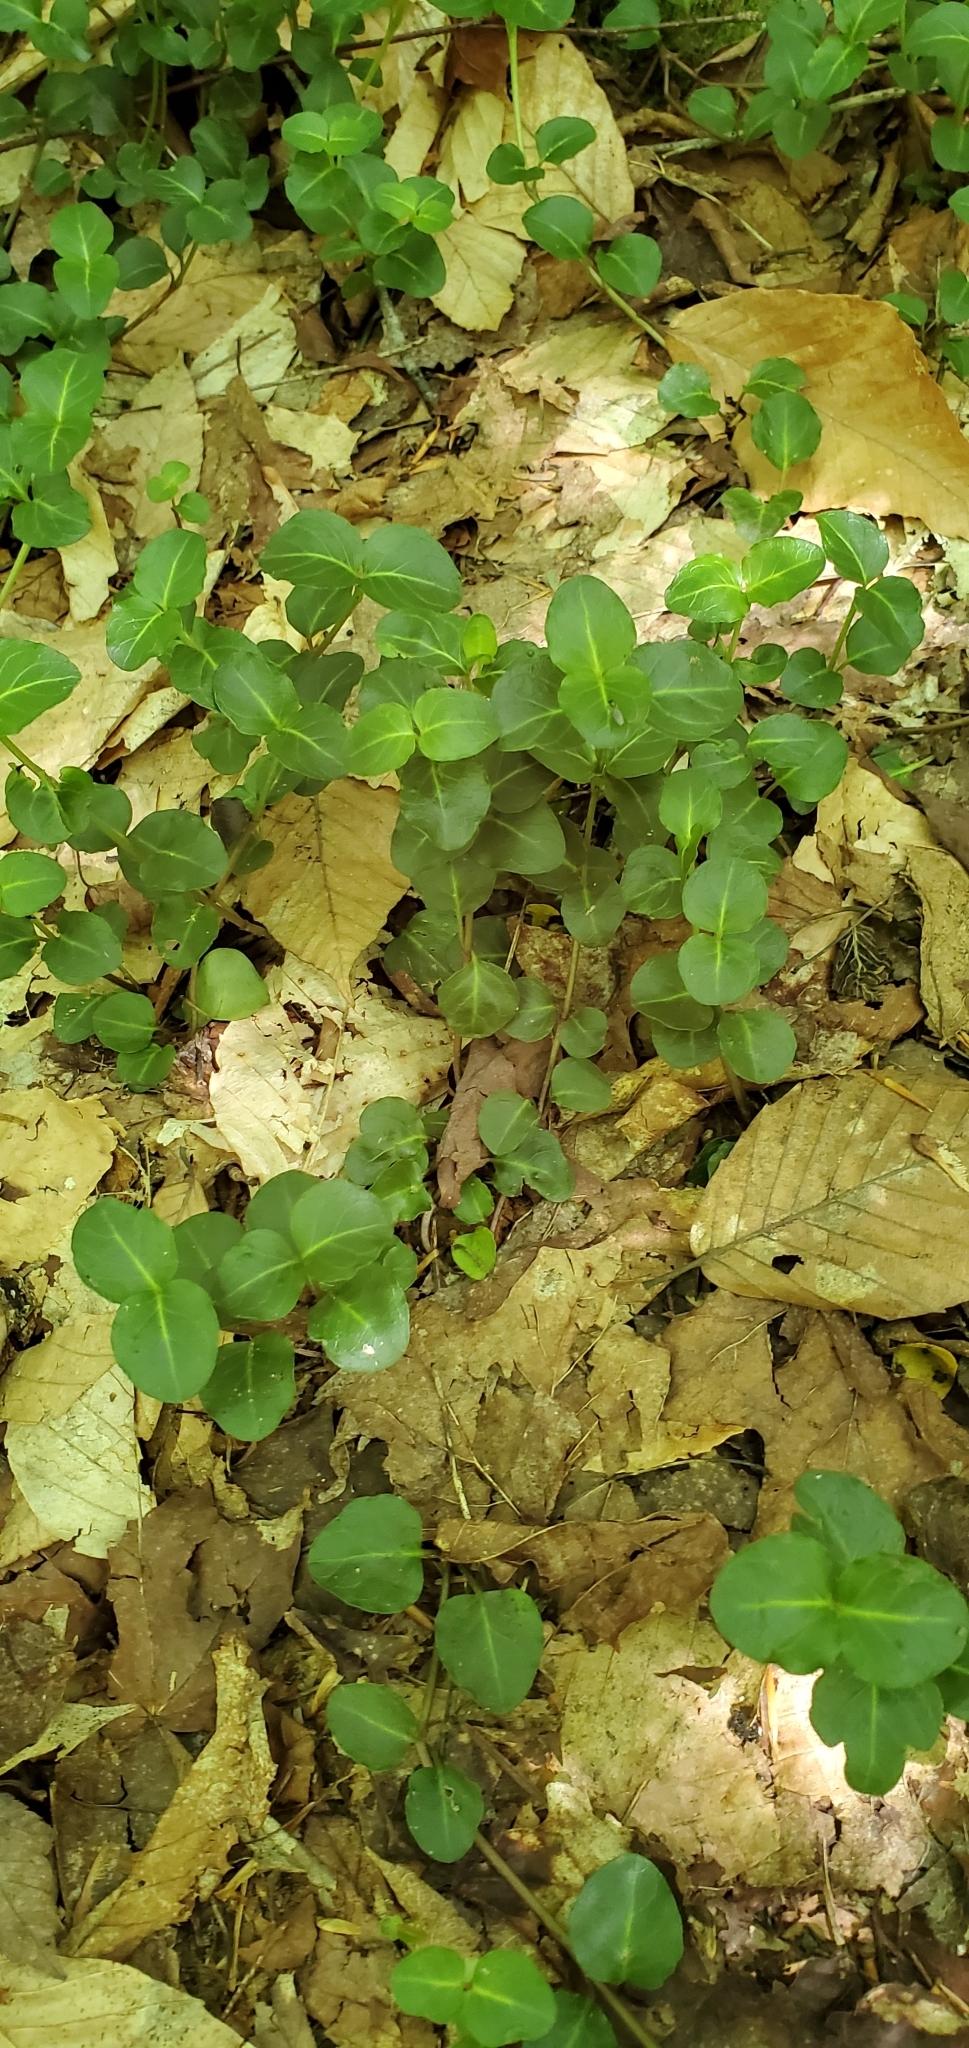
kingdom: Plantae
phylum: Tracheophyta
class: Magnoliopsida
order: Gentianales
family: Rubiaceae
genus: Mitchella
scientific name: Mitchella repens
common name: Partridge-berry
